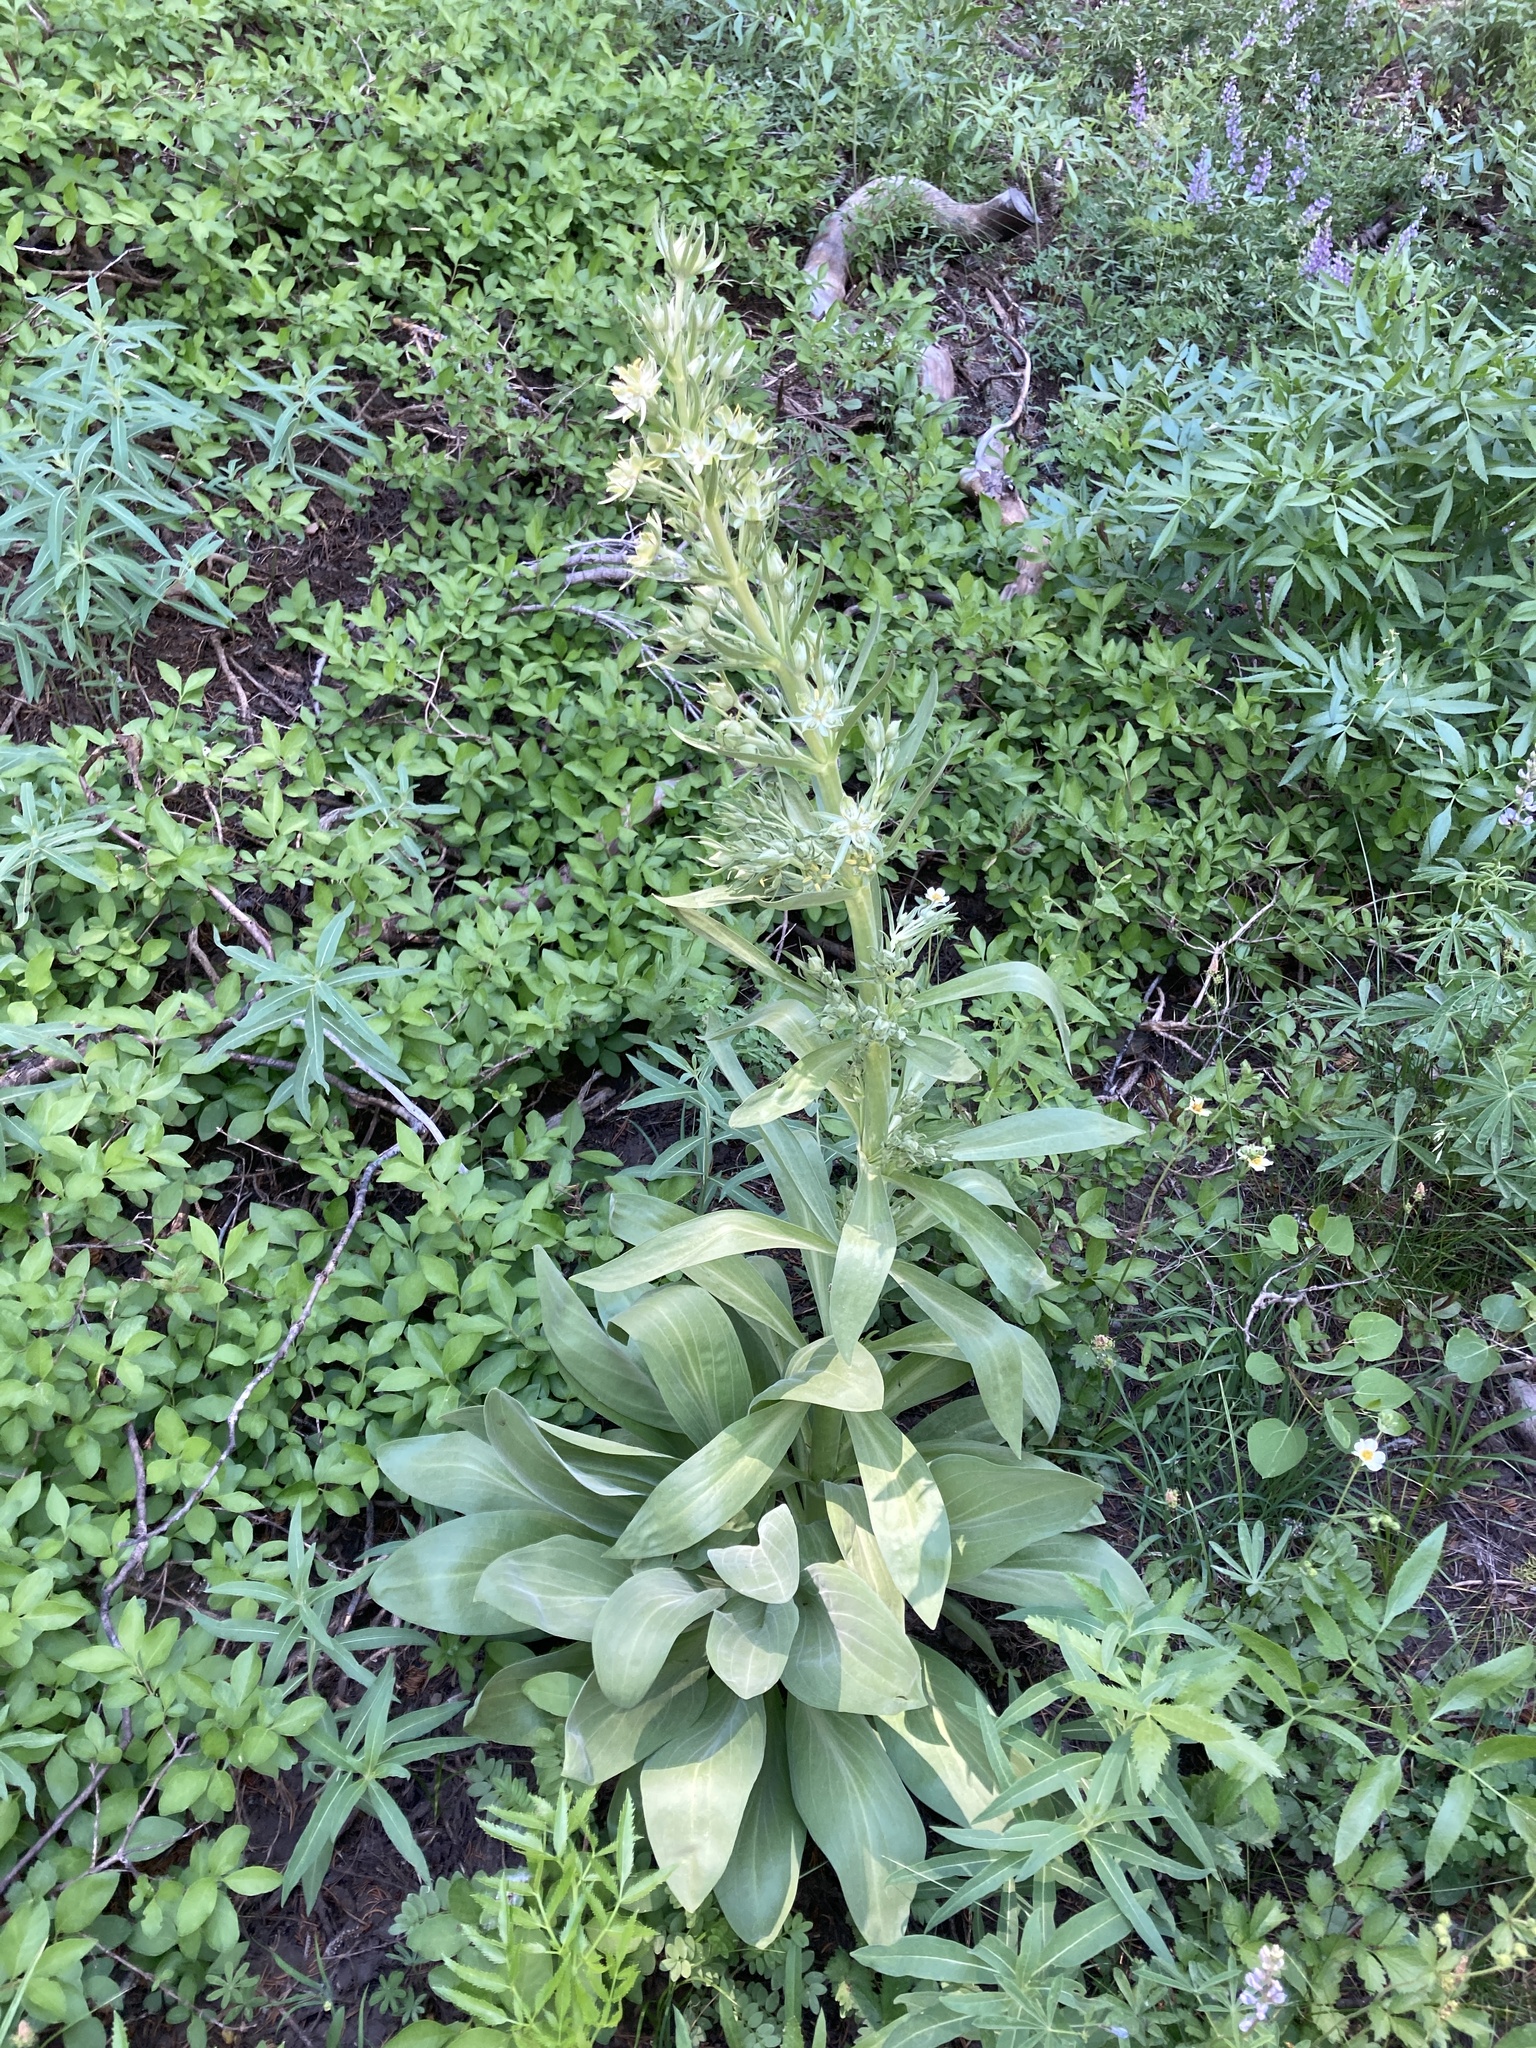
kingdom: Plantae
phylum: Tracheophyta
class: Magnoliopsida
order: Gentianales
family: Gentianaceae
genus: Frasera
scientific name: Frasera speciosa
